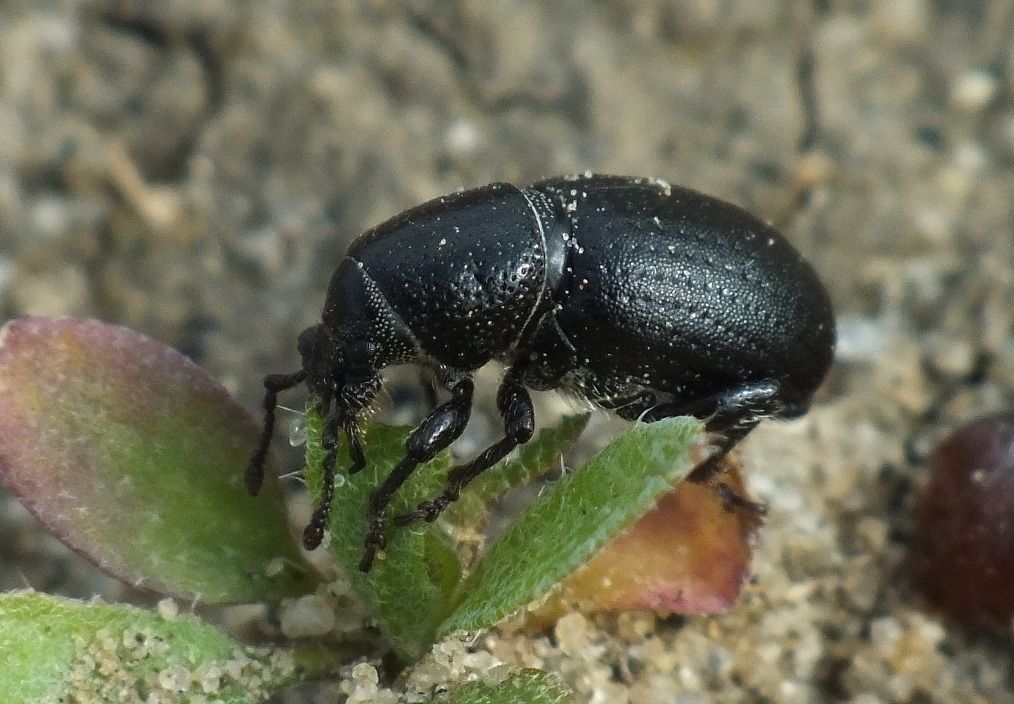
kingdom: Animalia
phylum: Arthropoda
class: Insecta
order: Coleoptera
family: Curculionidae
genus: Psallidium
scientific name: Psallidium maxillosum
